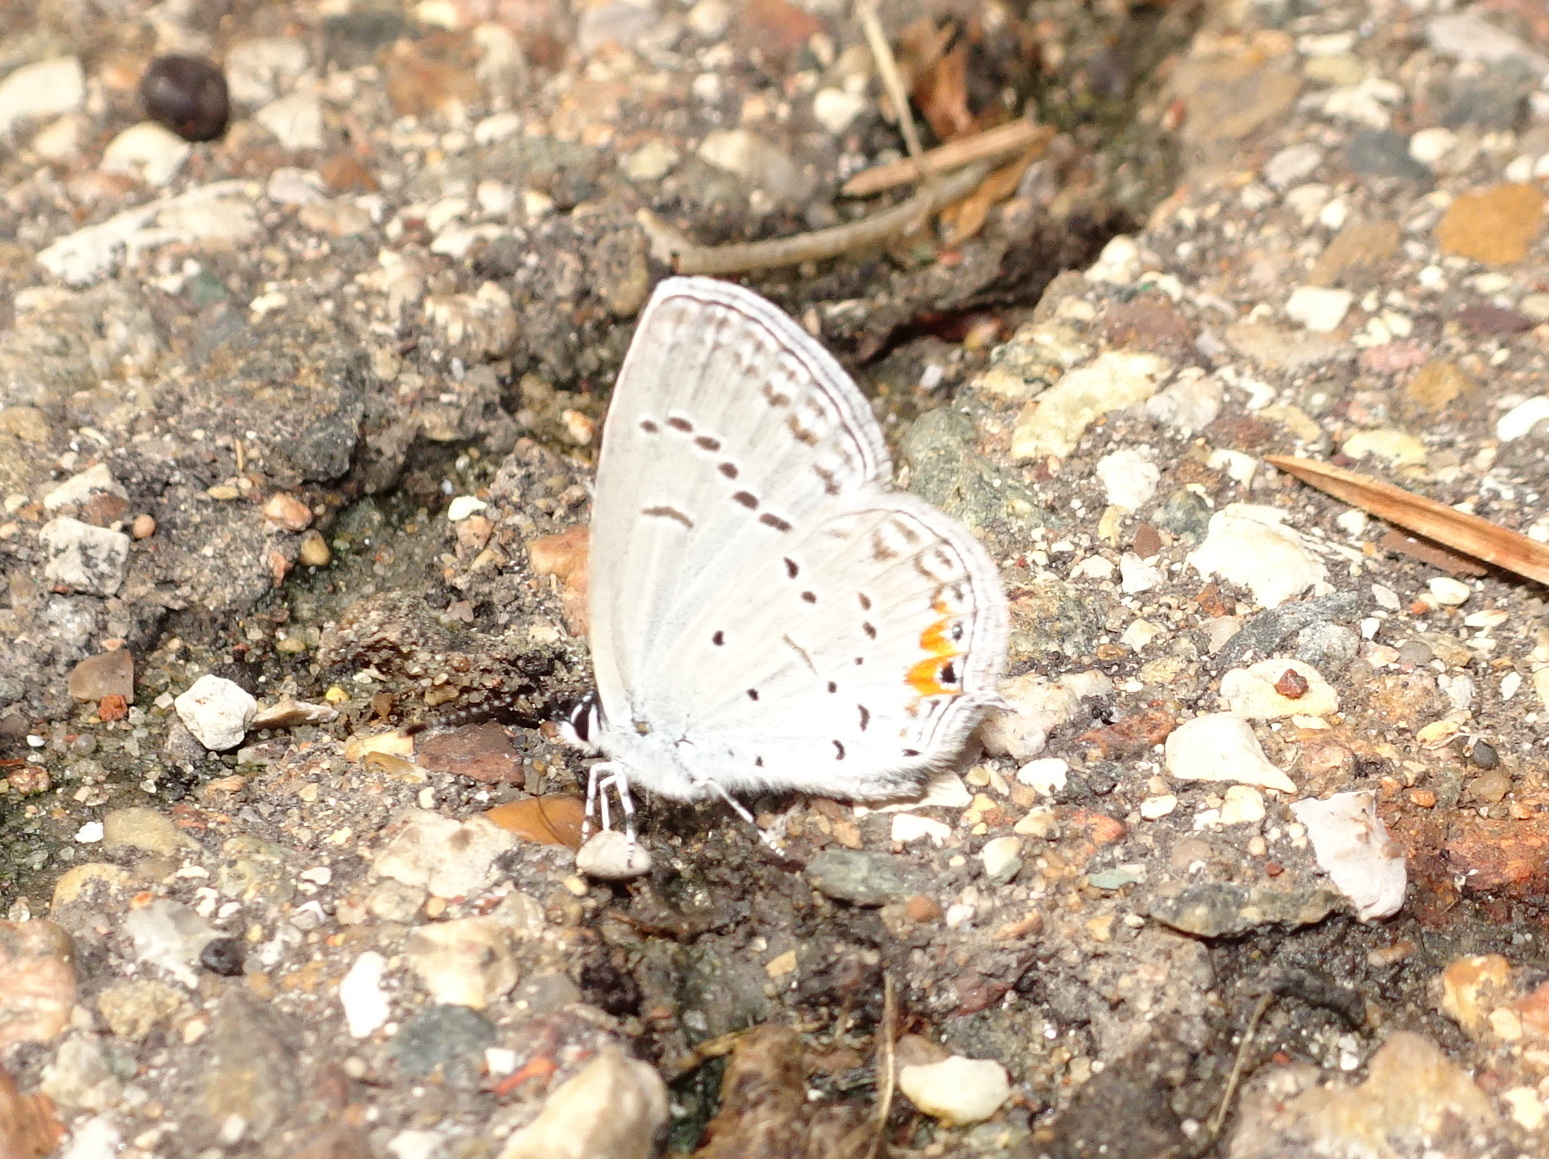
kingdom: Animalia
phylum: Arthropoda
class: Insecta
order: Lepidoptera
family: Lycaenidae
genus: Elkalyce
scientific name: Elkalyce comyntas
